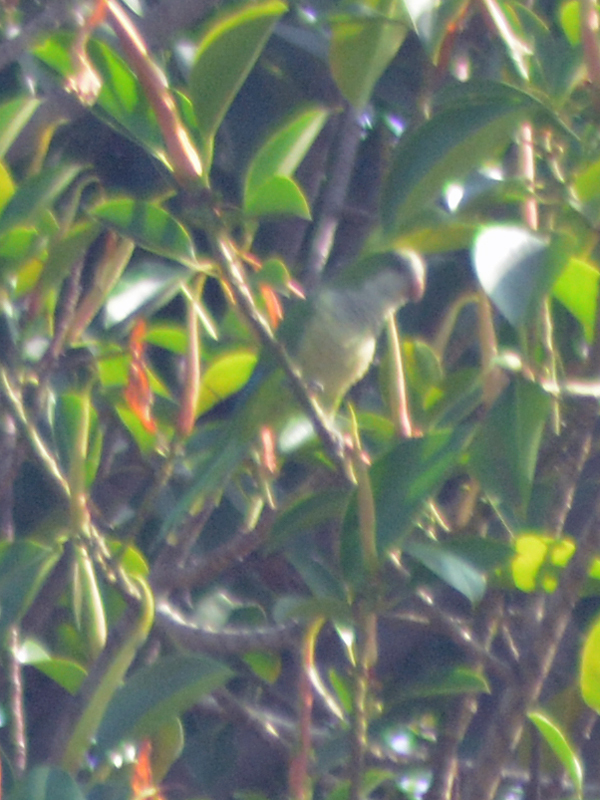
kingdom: Animalia
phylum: Chordata
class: Aves
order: Psittaciformes
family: Psittacidae
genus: Myiopsitta
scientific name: Myiopsitta monachus
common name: Monk parakeet
